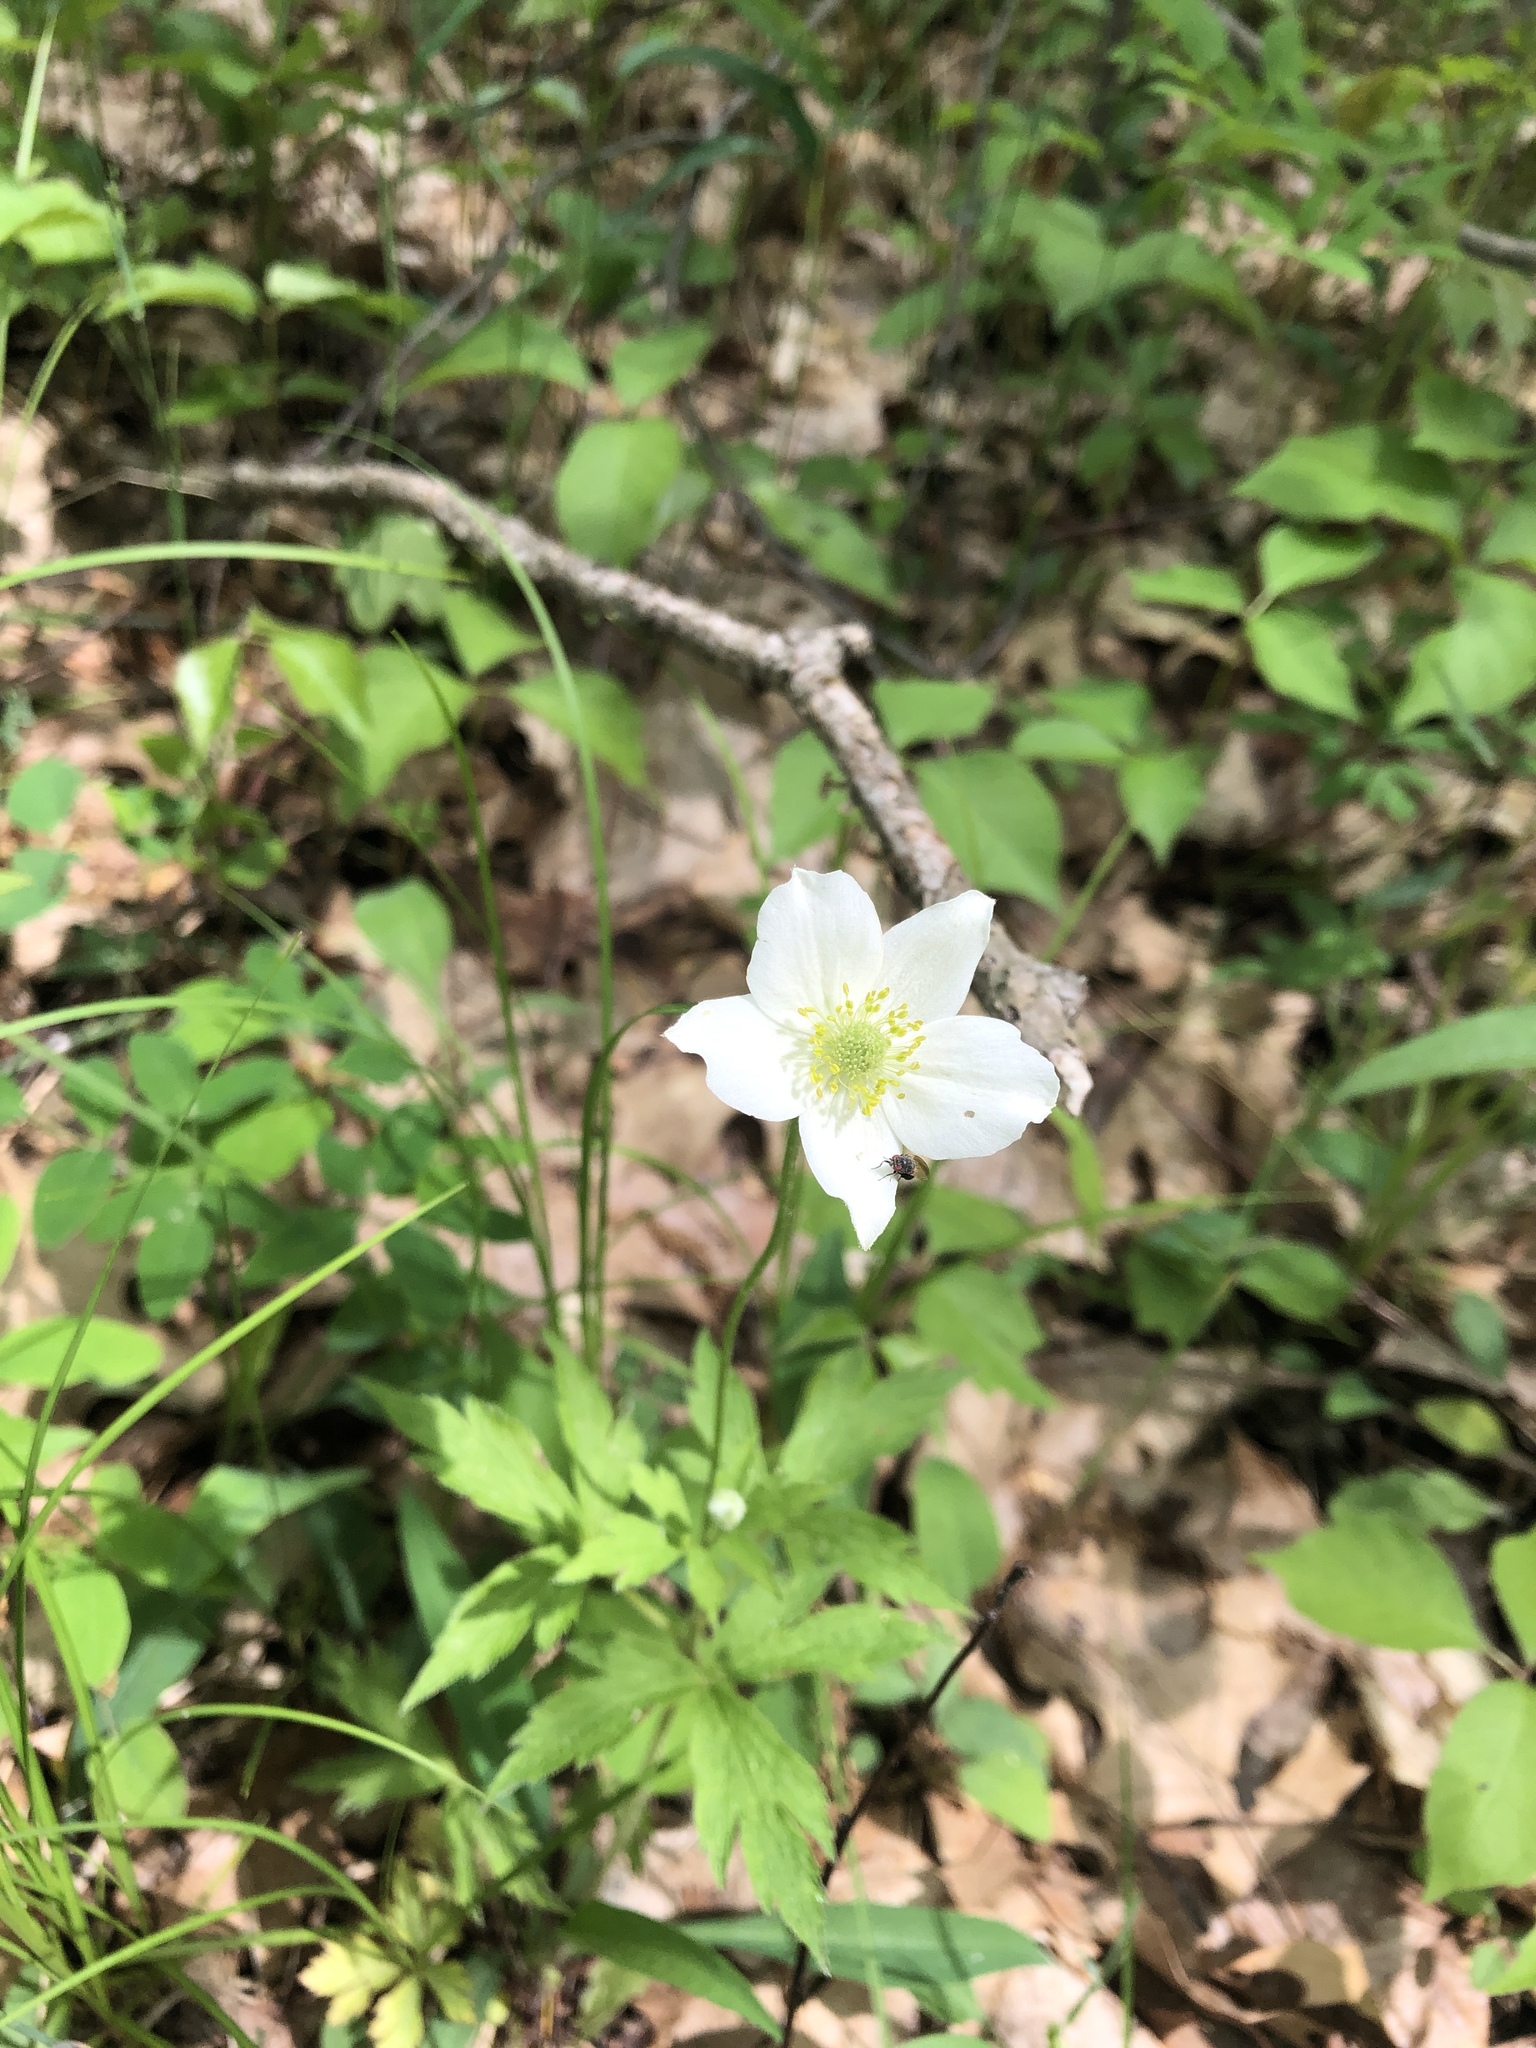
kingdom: Plantae
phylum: Tracheophyta
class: Magnoliopsida
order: Ranunculales
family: Ranunculaceae
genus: Anemone
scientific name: Anemone virginiana
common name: Tall anemone
